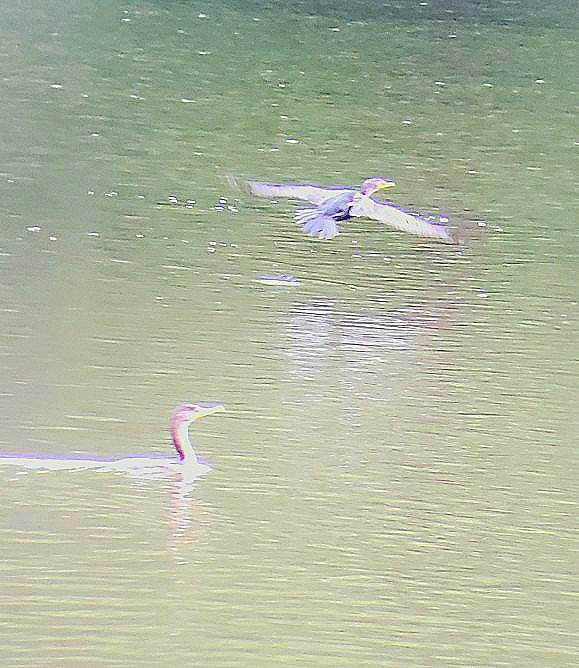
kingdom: Animalia
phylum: Chordata
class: Aves
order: Suliformes
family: Phalacrocoracidae
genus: Phalacrocorax
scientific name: Phalacrocorax auritus
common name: Double-crested cormorant
